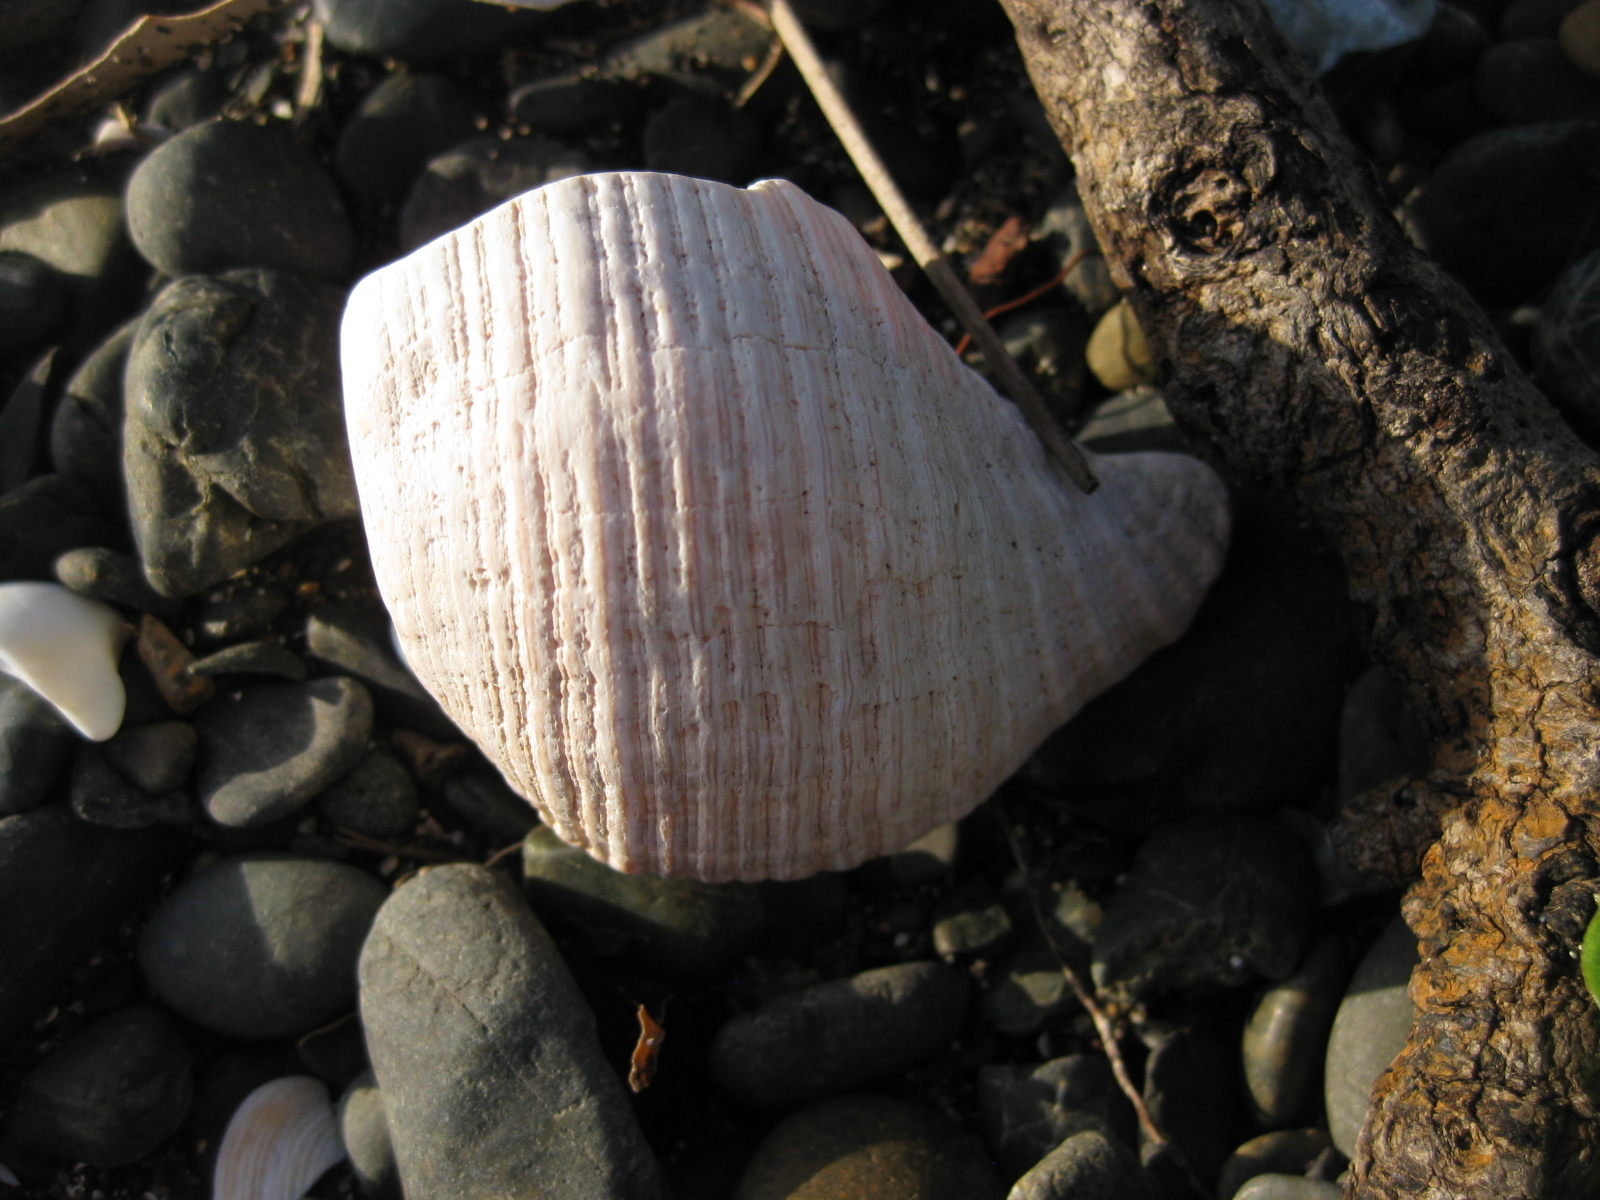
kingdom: Animalia
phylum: Mollusca
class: Gastropoda
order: Neogastropoda
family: Austrosiphonidae
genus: Penion
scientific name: Penion sulcatus
